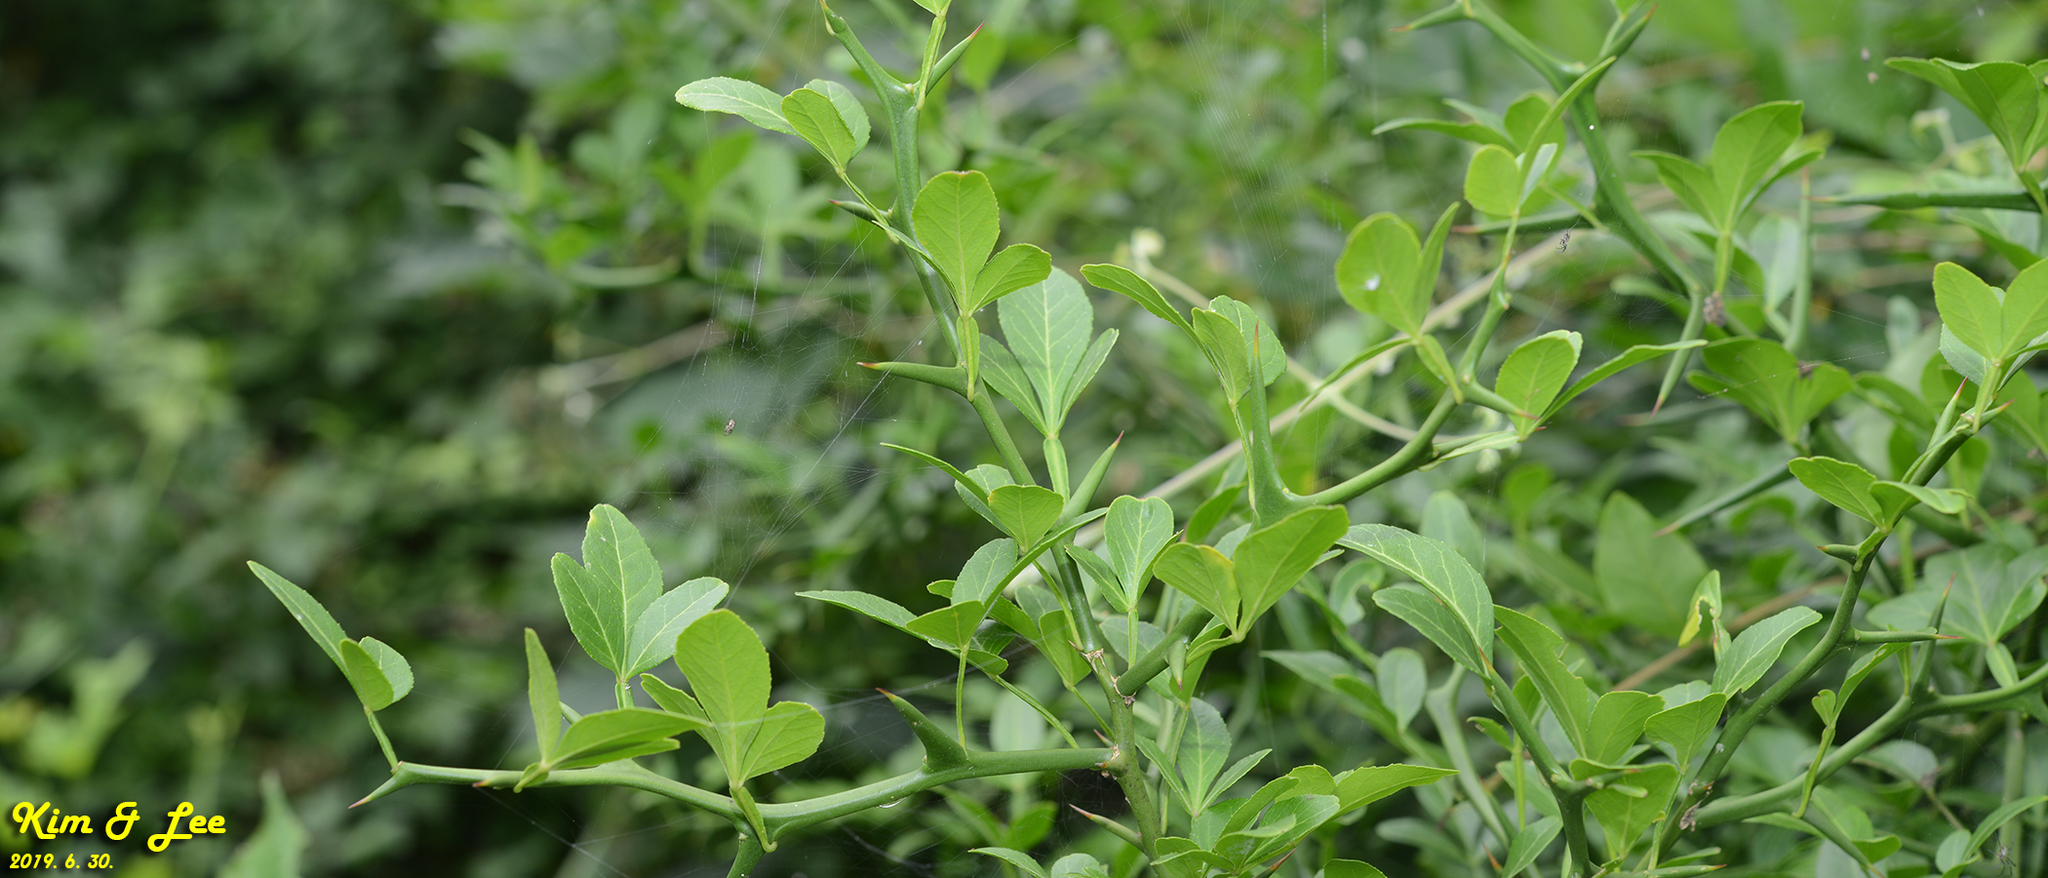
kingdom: Plantae
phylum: Tracheophyta
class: Magnoliopsida
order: Sapindales
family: Rutaceae
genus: Citrus
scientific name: Citrus trifoliata
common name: Japanese bitter-orange
